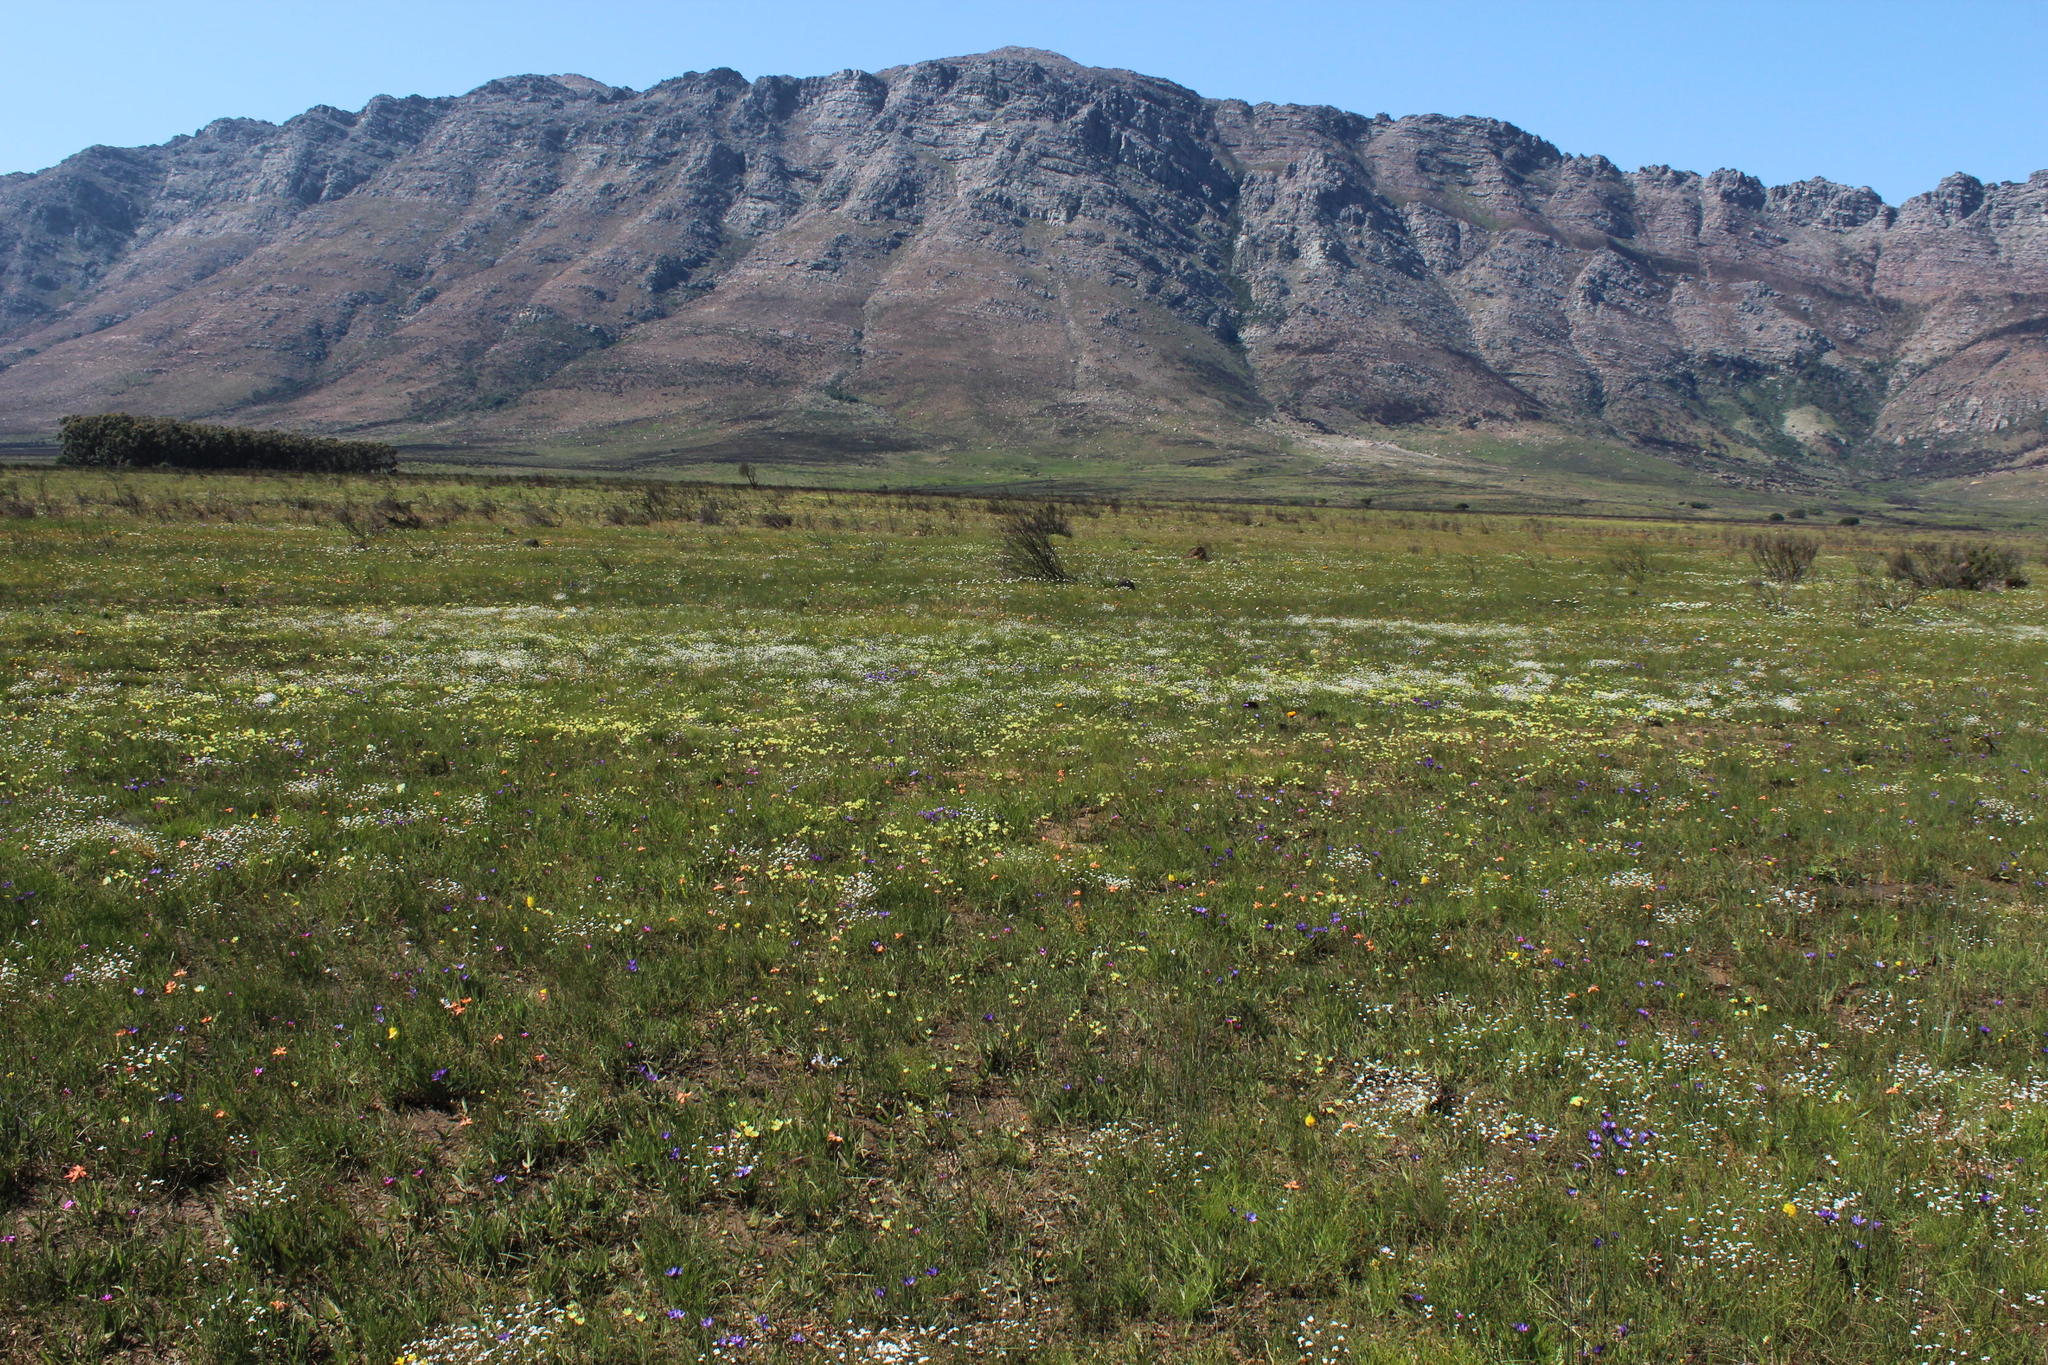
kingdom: Plantae
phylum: Tracheophyta
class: Magnoliopsida
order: Brassicales
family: Brassicaceae
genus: Heliophila
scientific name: Heliophila pusilla
